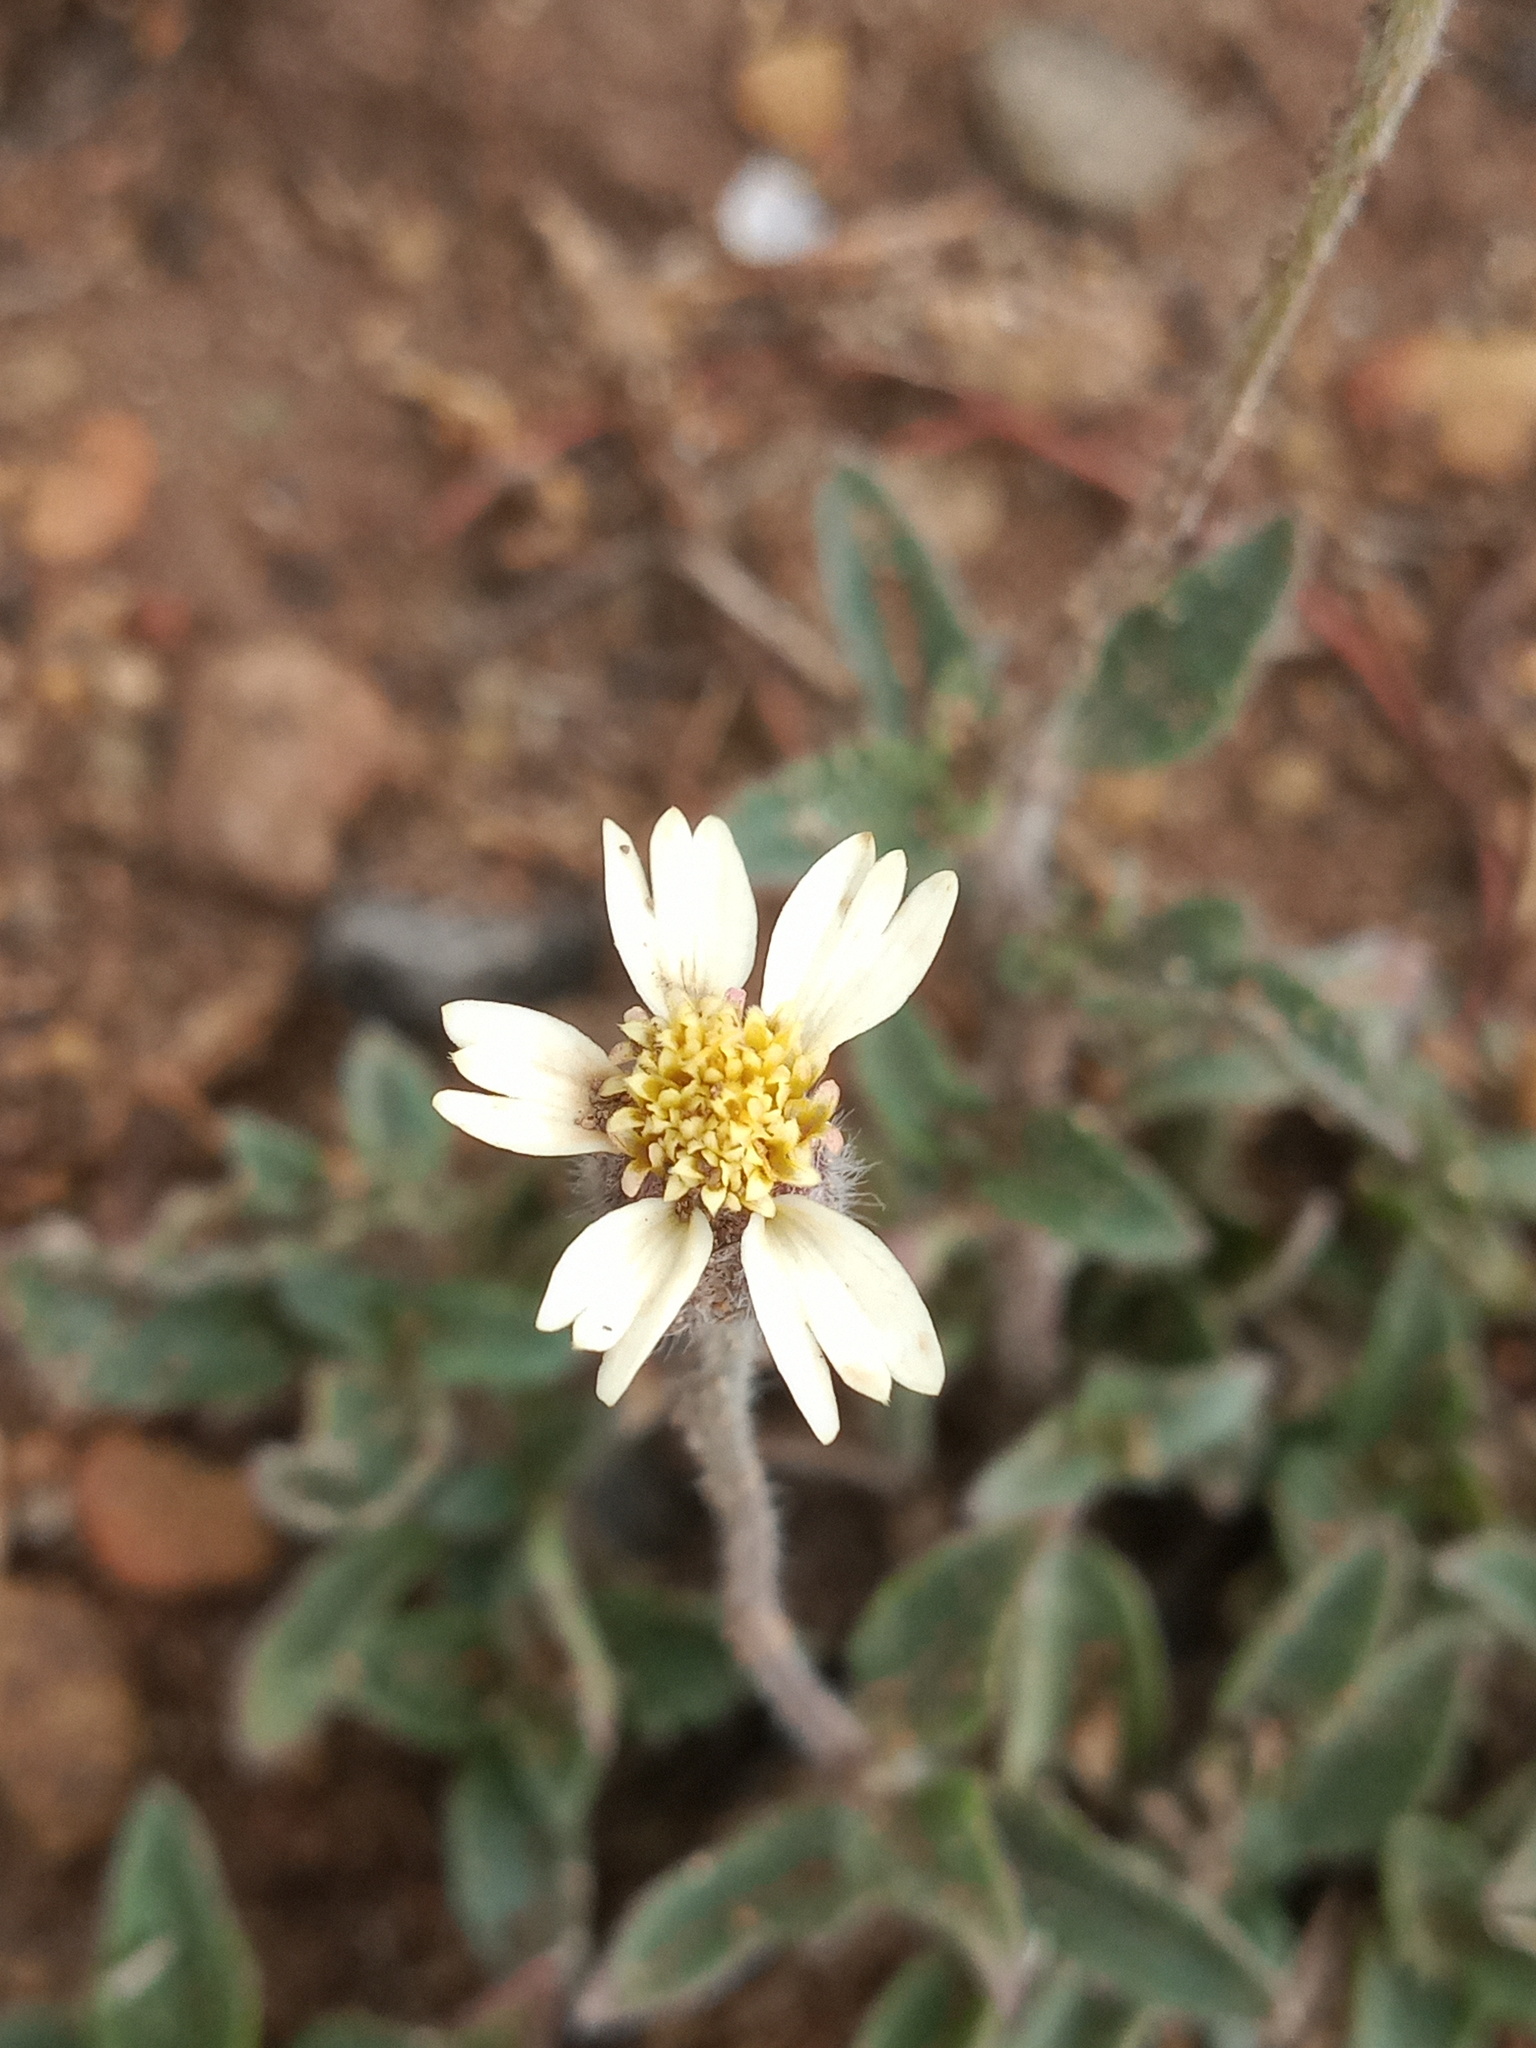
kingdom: Plantae
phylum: Tracheophyta
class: Magnoliopsida
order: Asterales
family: Asteraceae
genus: Tridax
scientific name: Tridax procumbens
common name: Coatbuttons
